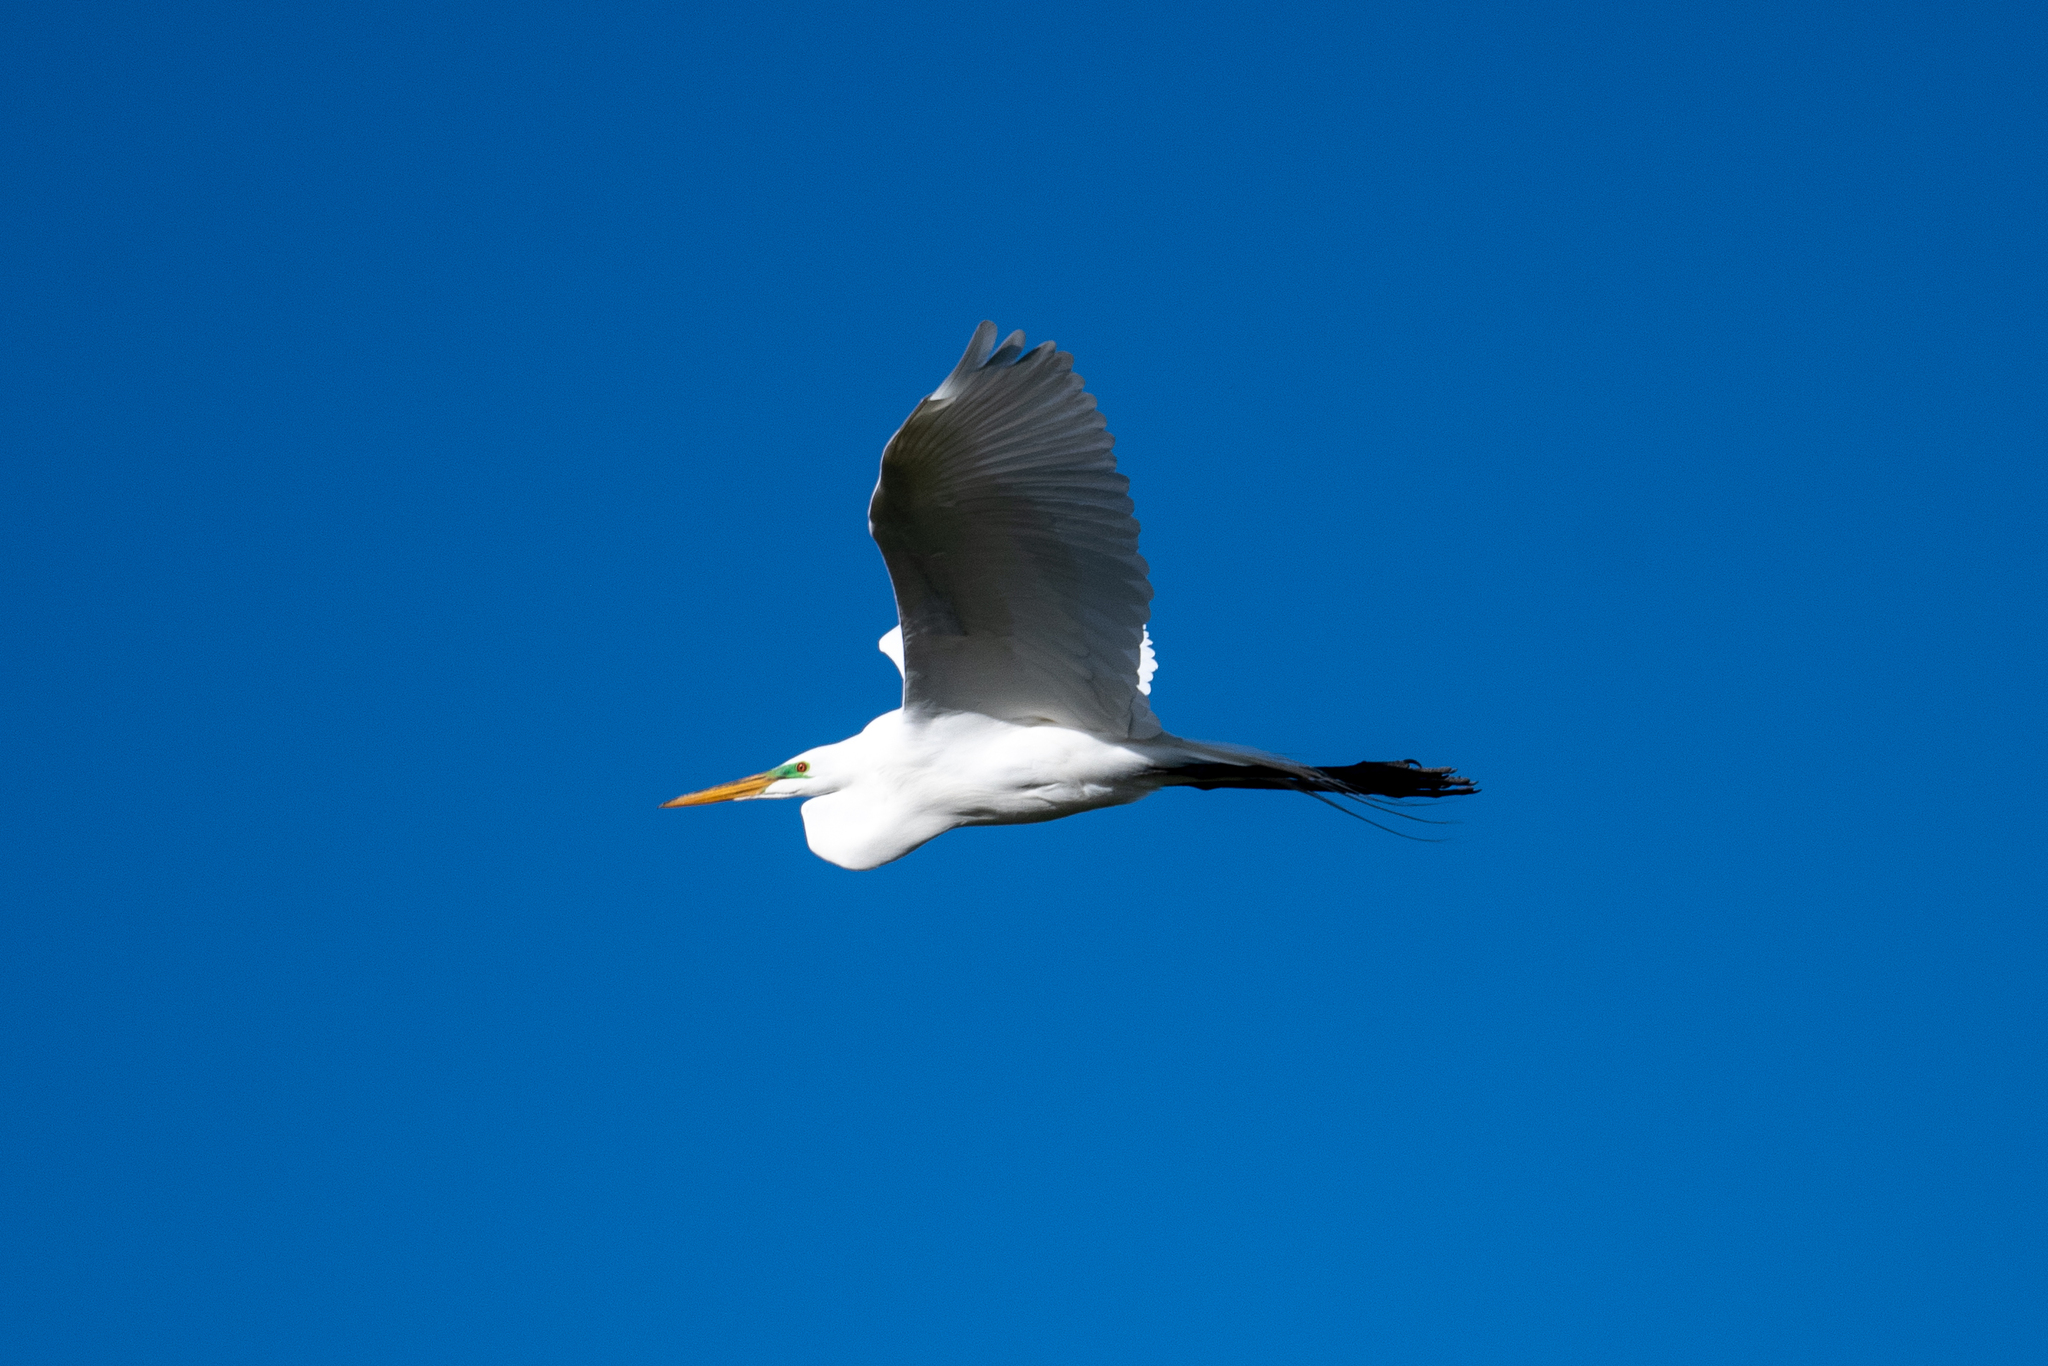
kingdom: Animalia
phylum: Chordata
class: Aves
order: Pelecaniformes
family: Ardeidae
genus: Ardea
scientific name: Ardea alba
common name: Great egret
